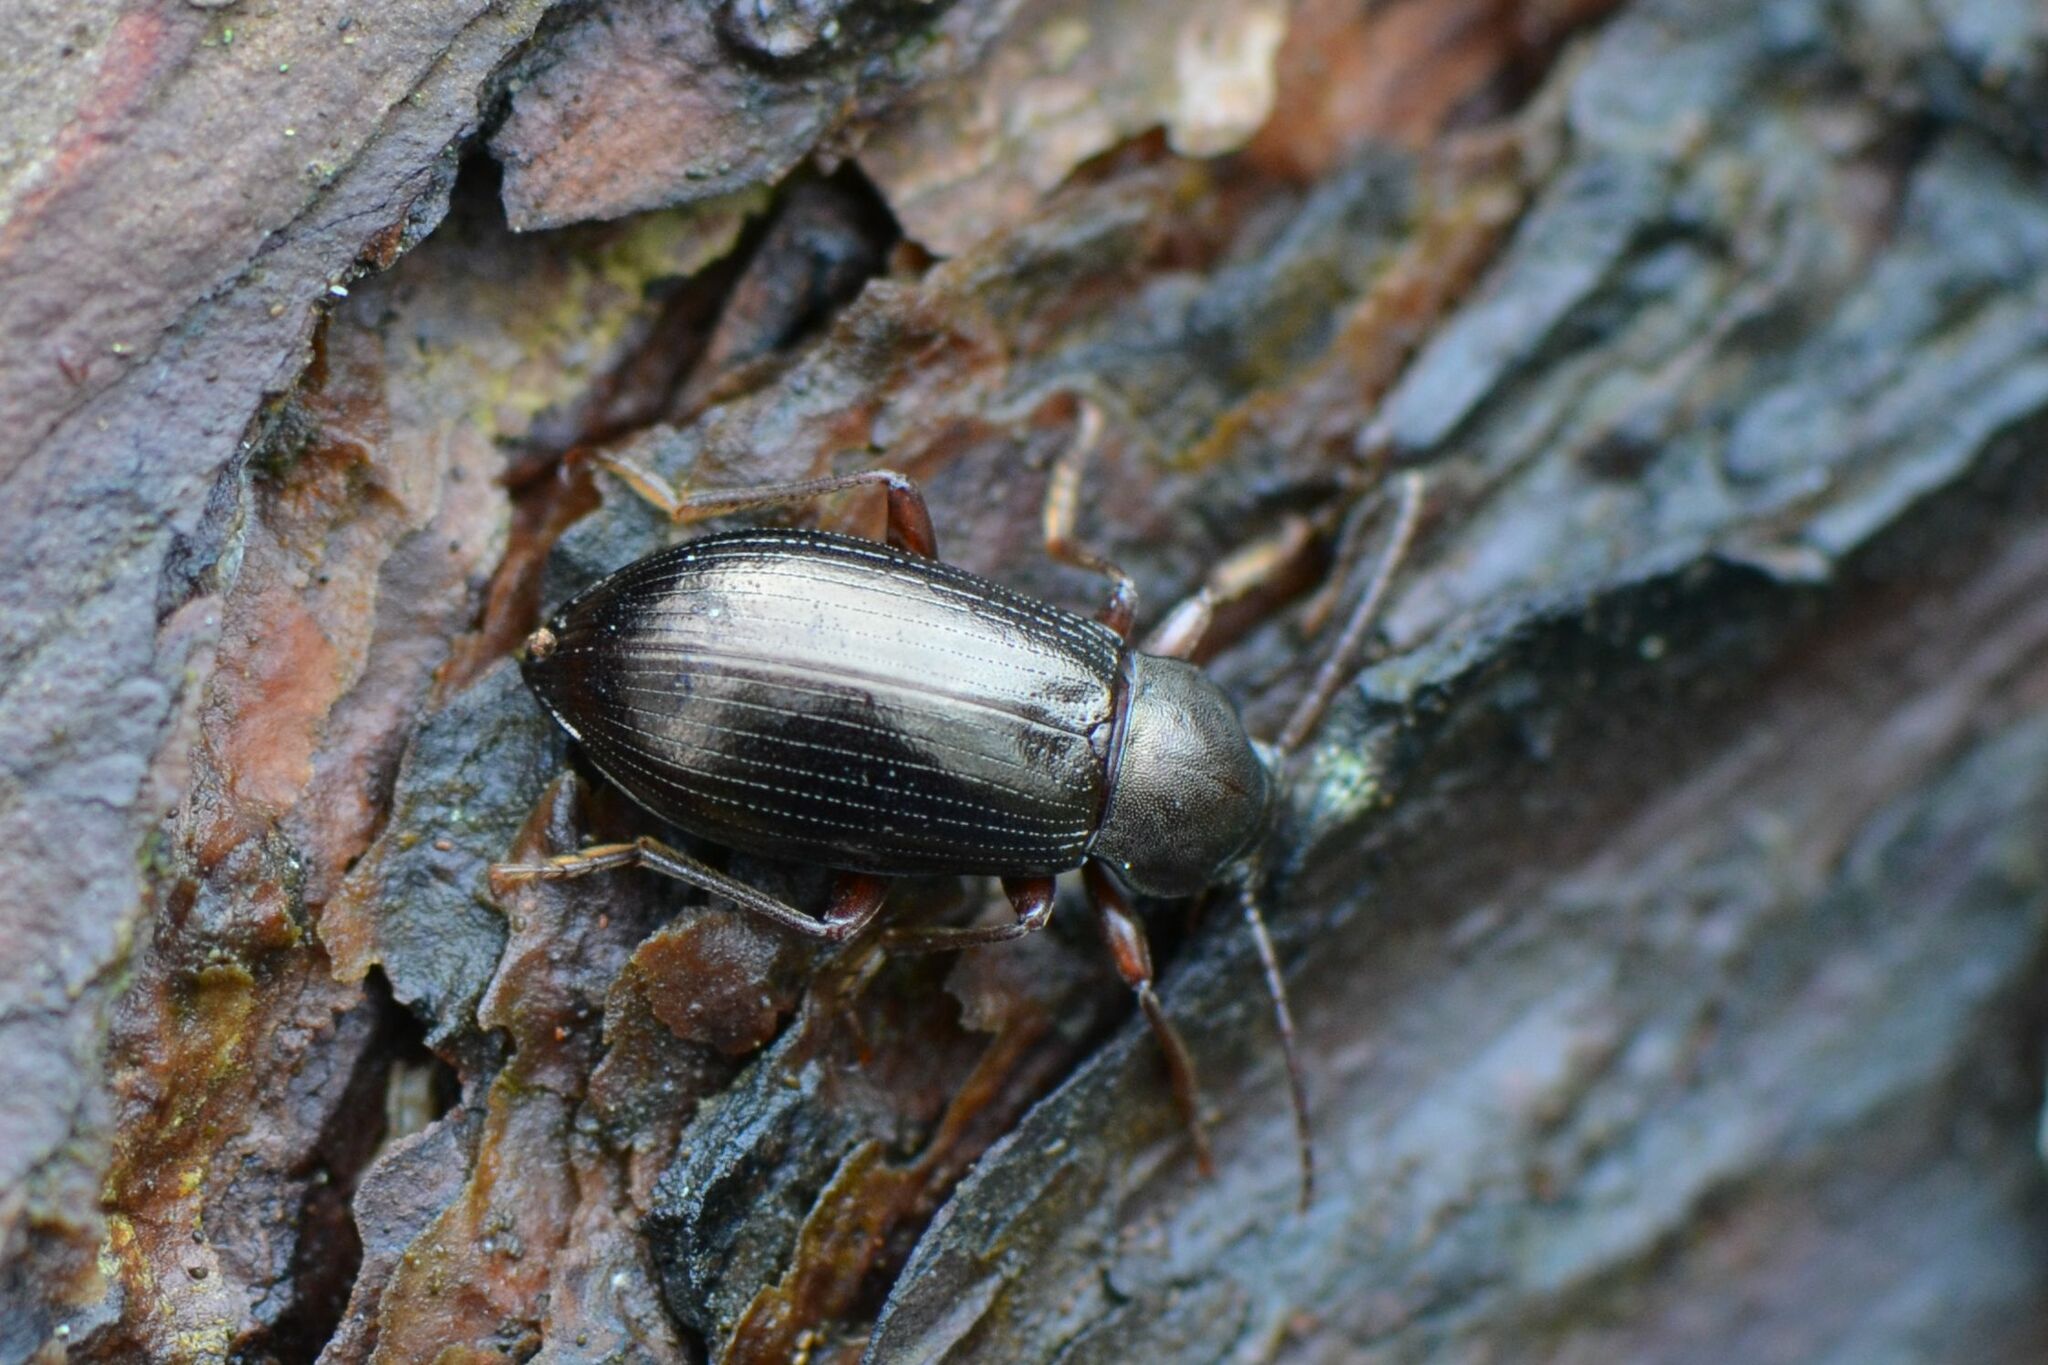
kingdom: Animalia
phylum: Arthropoda
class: Insecta
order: Coleoptera
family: Tenebrionidae
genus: Stenomax
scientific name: Stenomax aeneus
